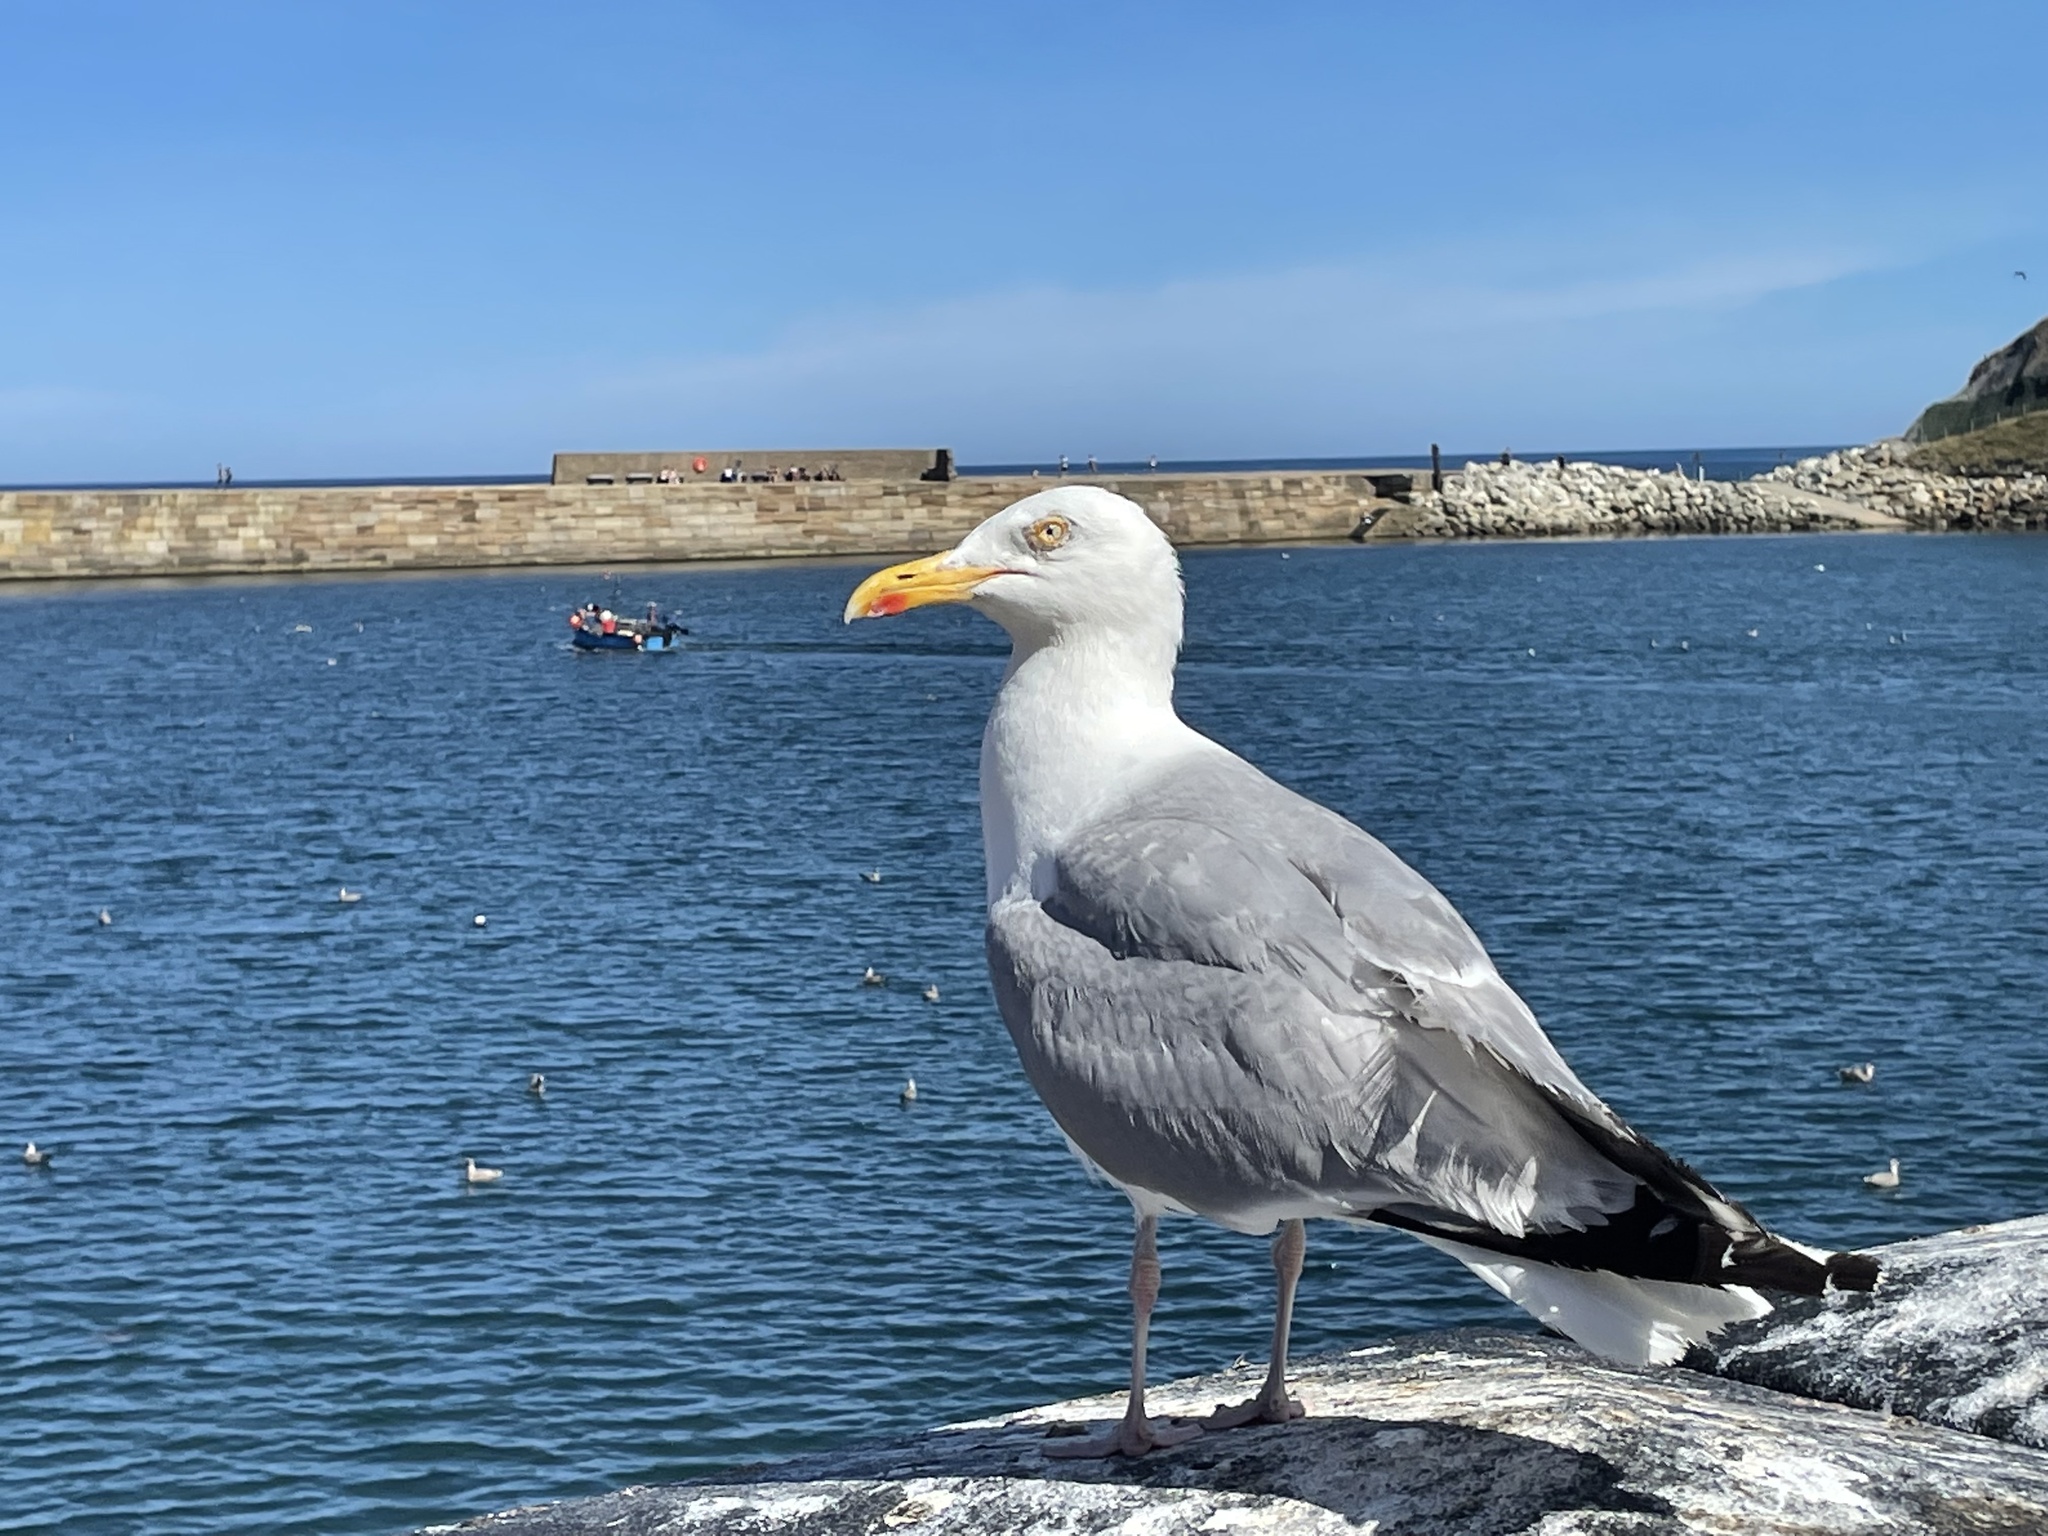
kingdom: Animalia
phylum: Chordata
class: Aves
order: Charadriiformes
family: Laridae
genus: Larus
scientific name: Larus argentatus
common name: Herring gull
